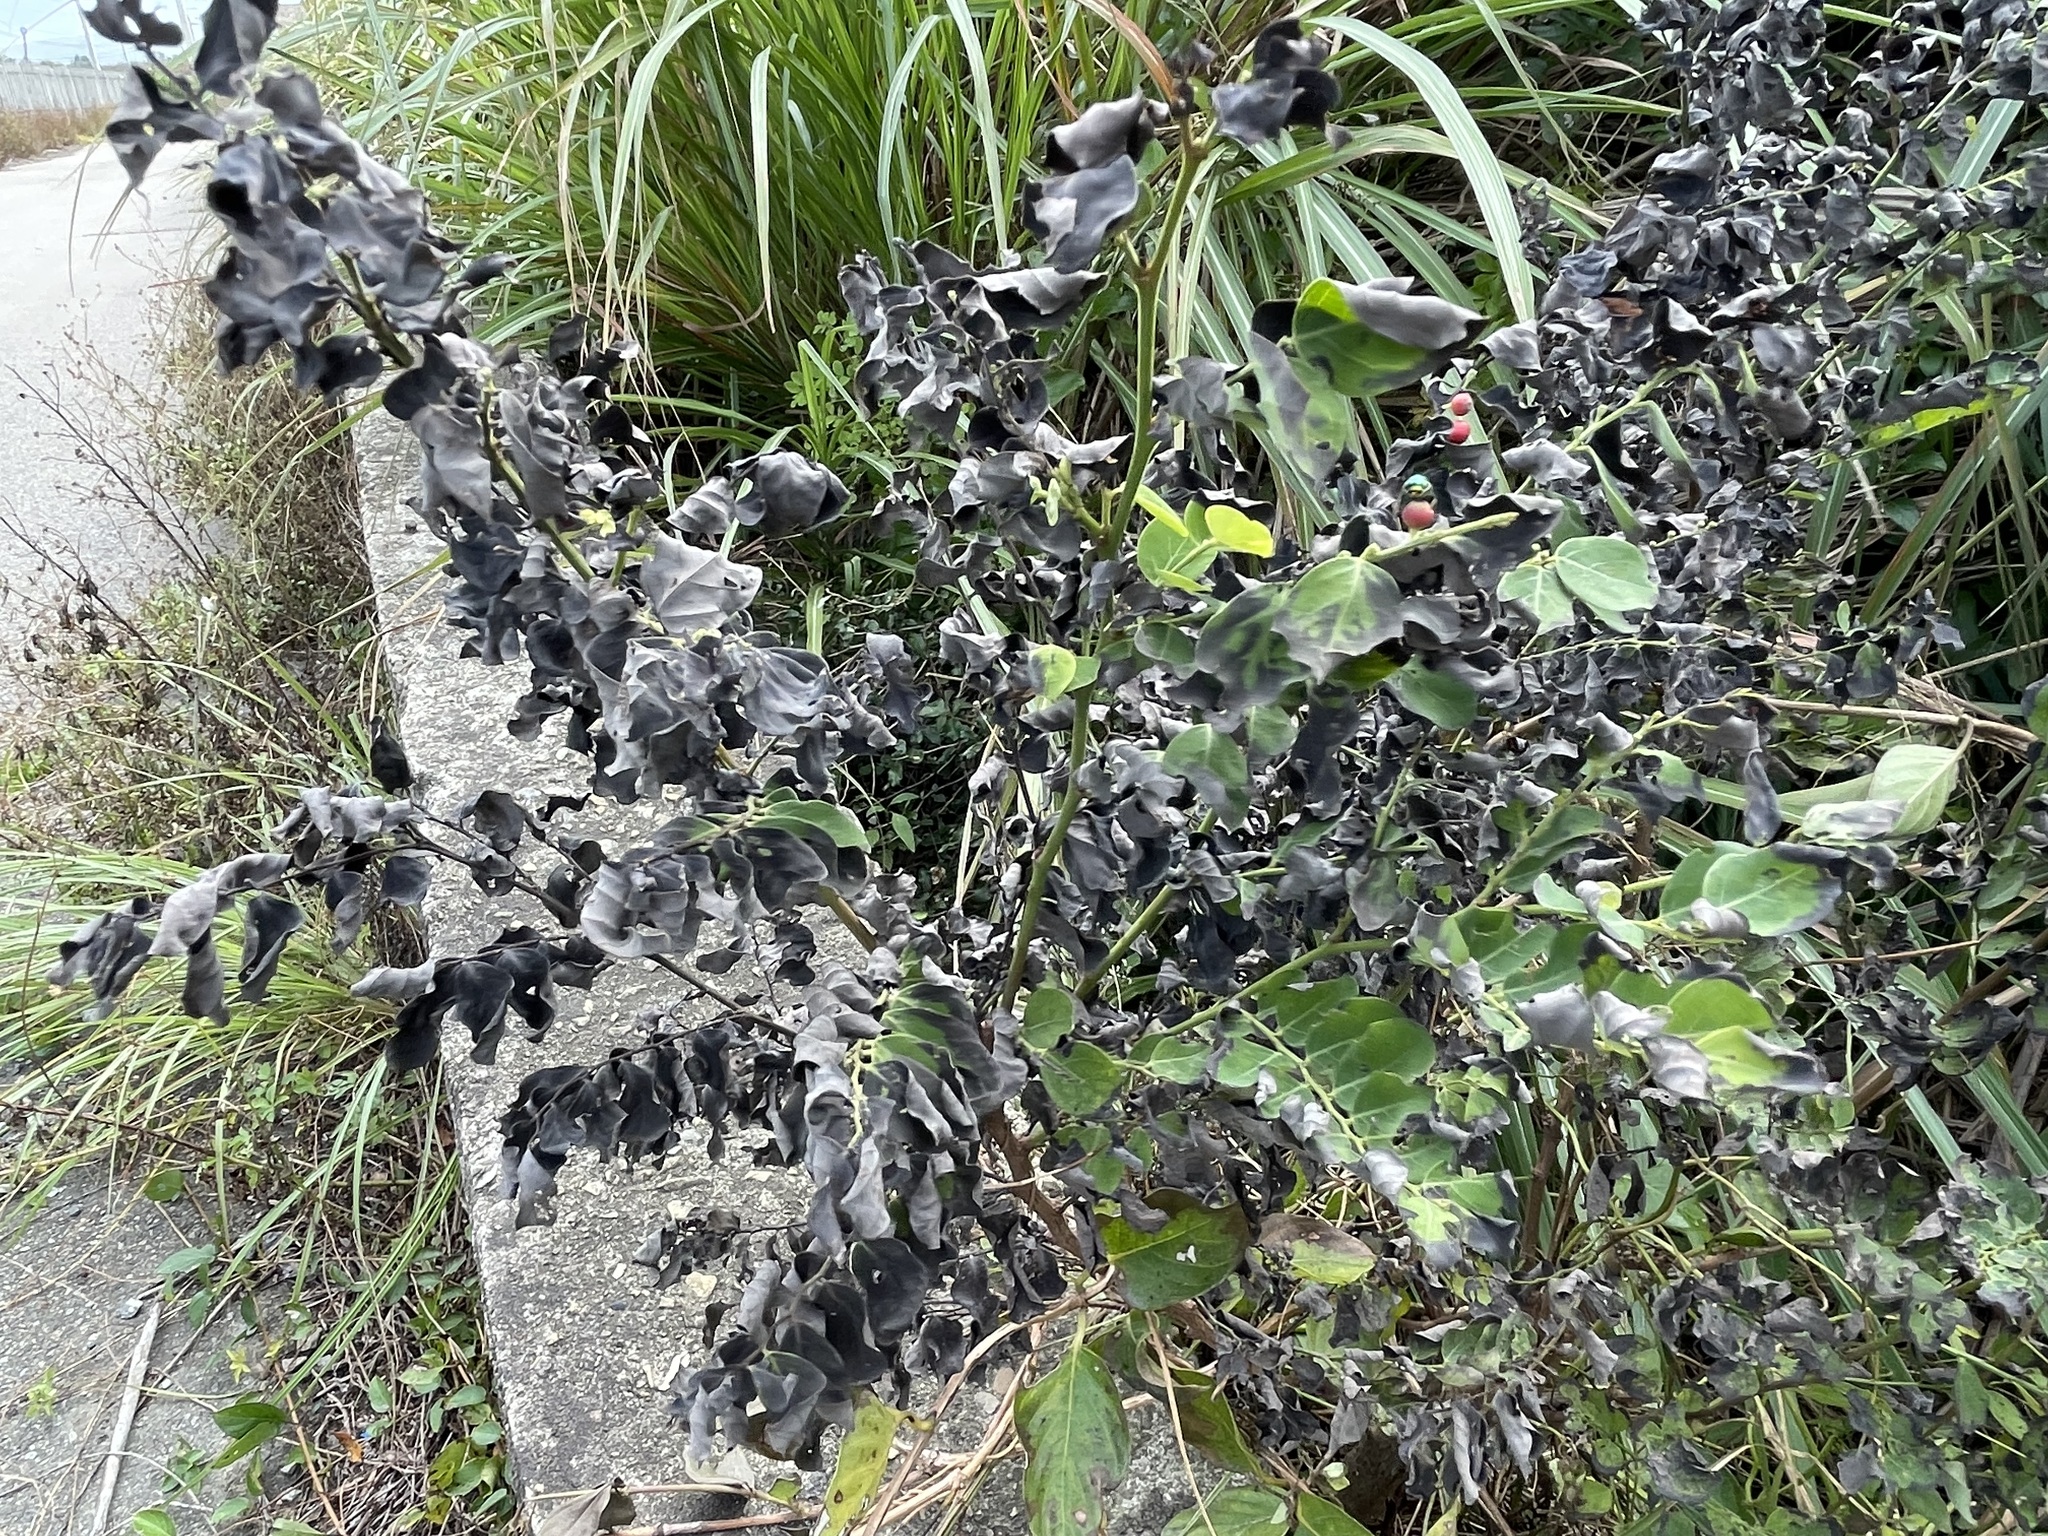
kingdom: Plantae
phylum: Tracheophyta
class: Magnoliopsida
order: Malpighiales
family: Phyllanthaceae
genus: Breynia
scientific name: Breynia vitis-idaea
